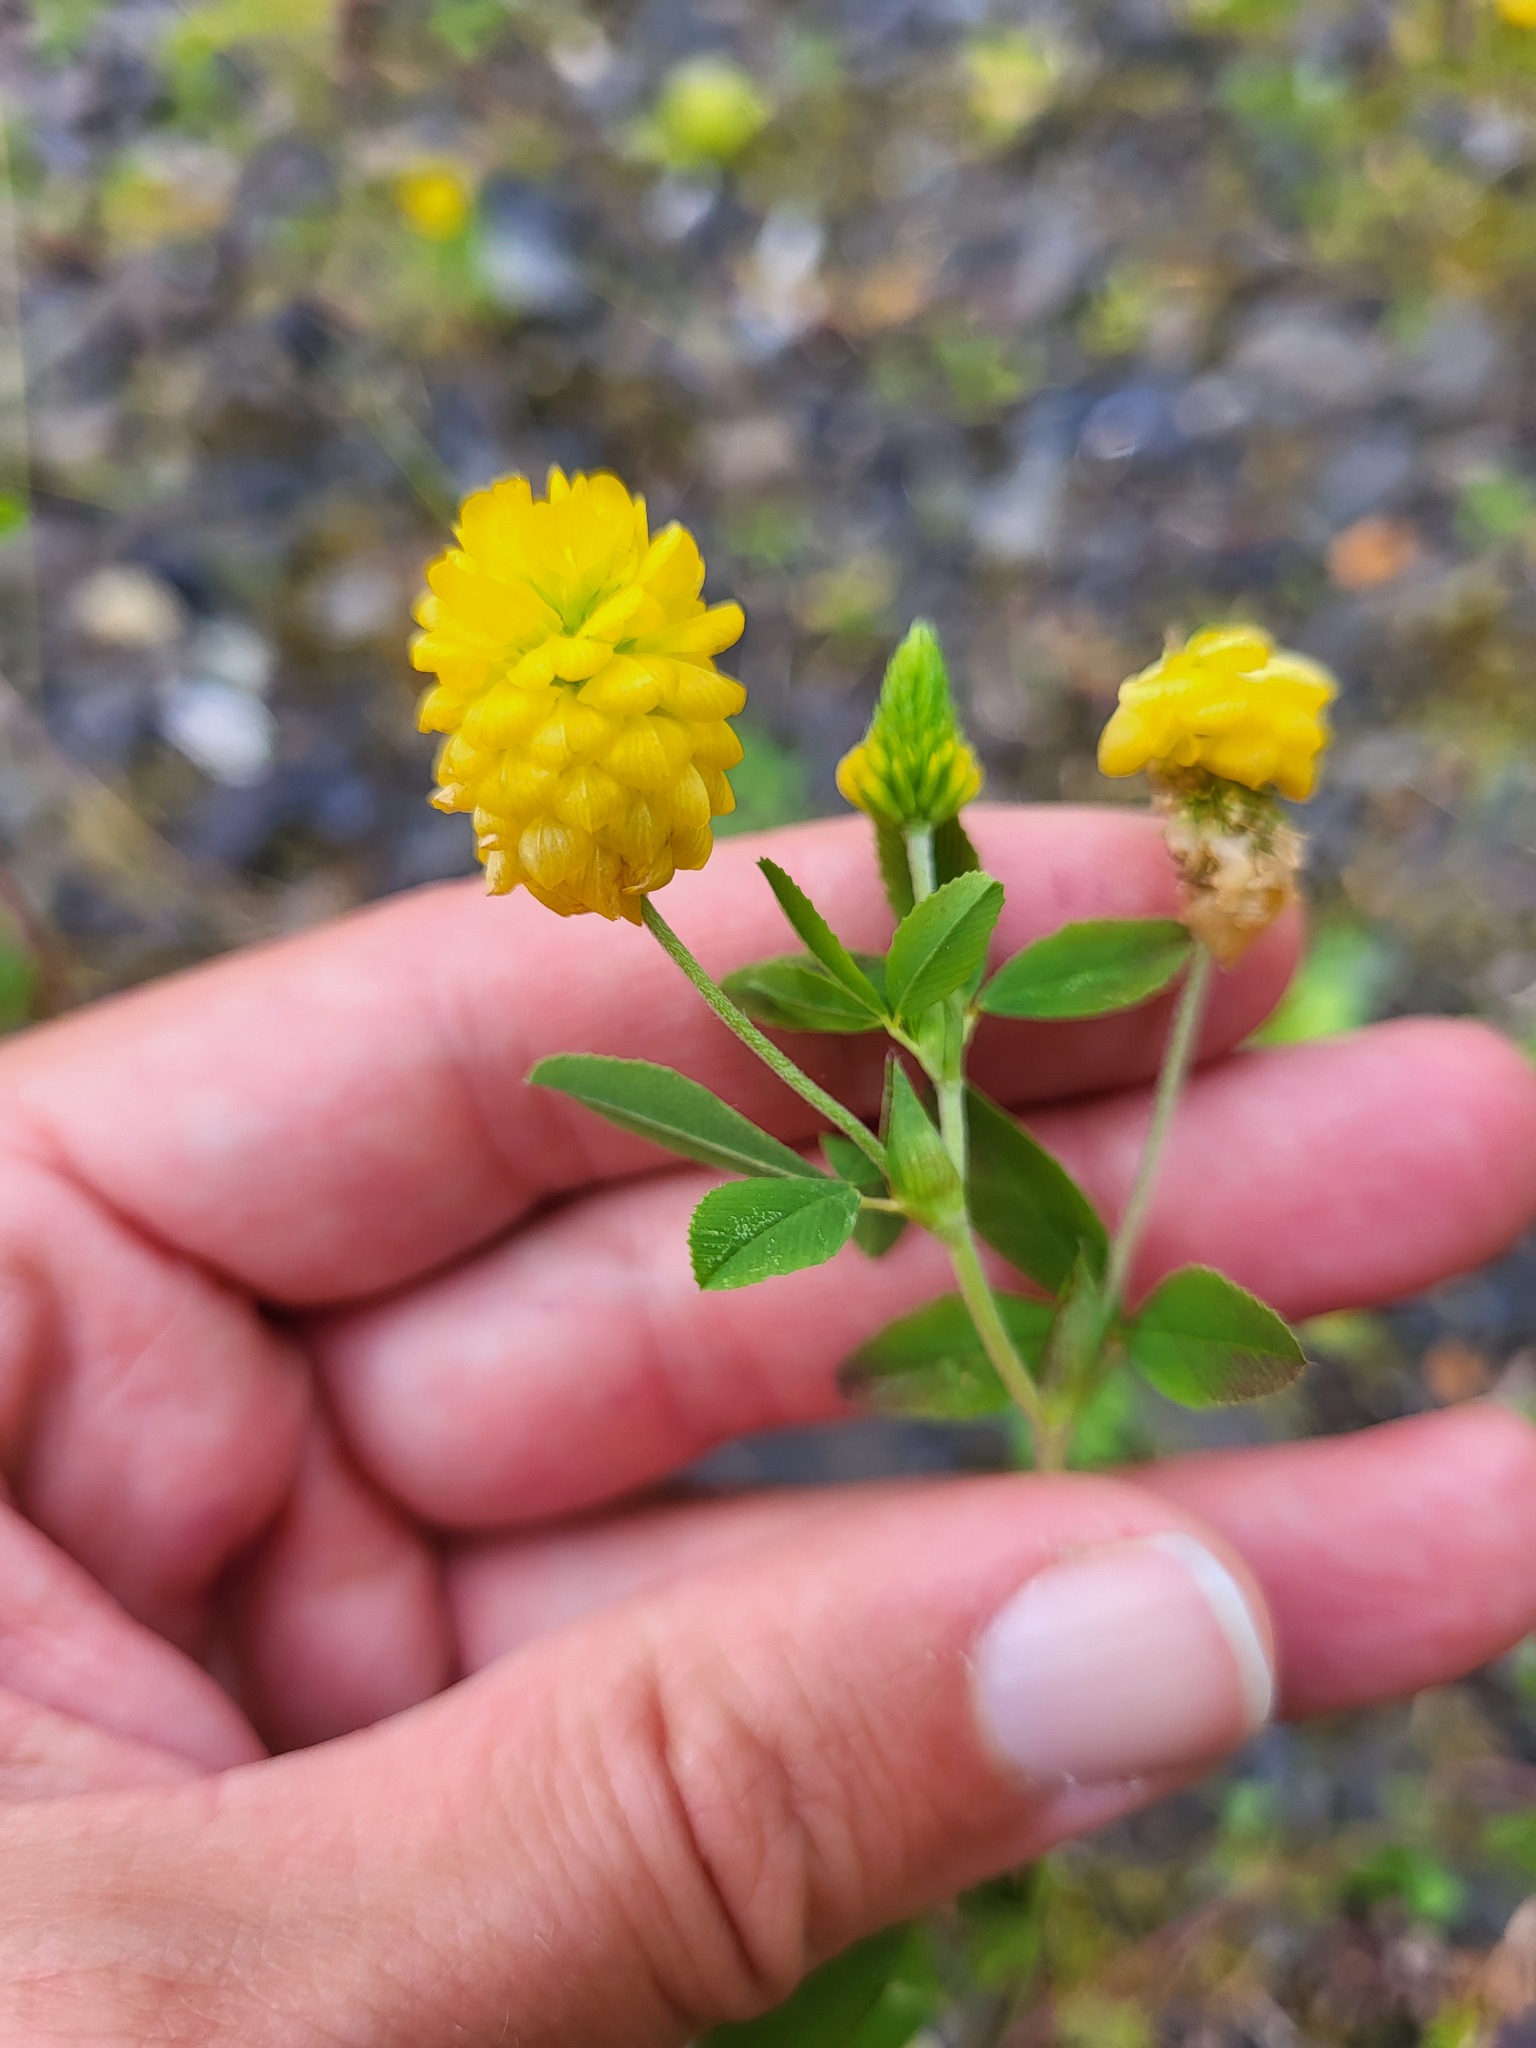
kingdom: Plantae
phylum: Tracheophyta
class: Magnoliopsida
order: Fabales
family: Fabaceae
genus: Trifolium
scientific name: Trifolium aureum
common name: Golden clover
